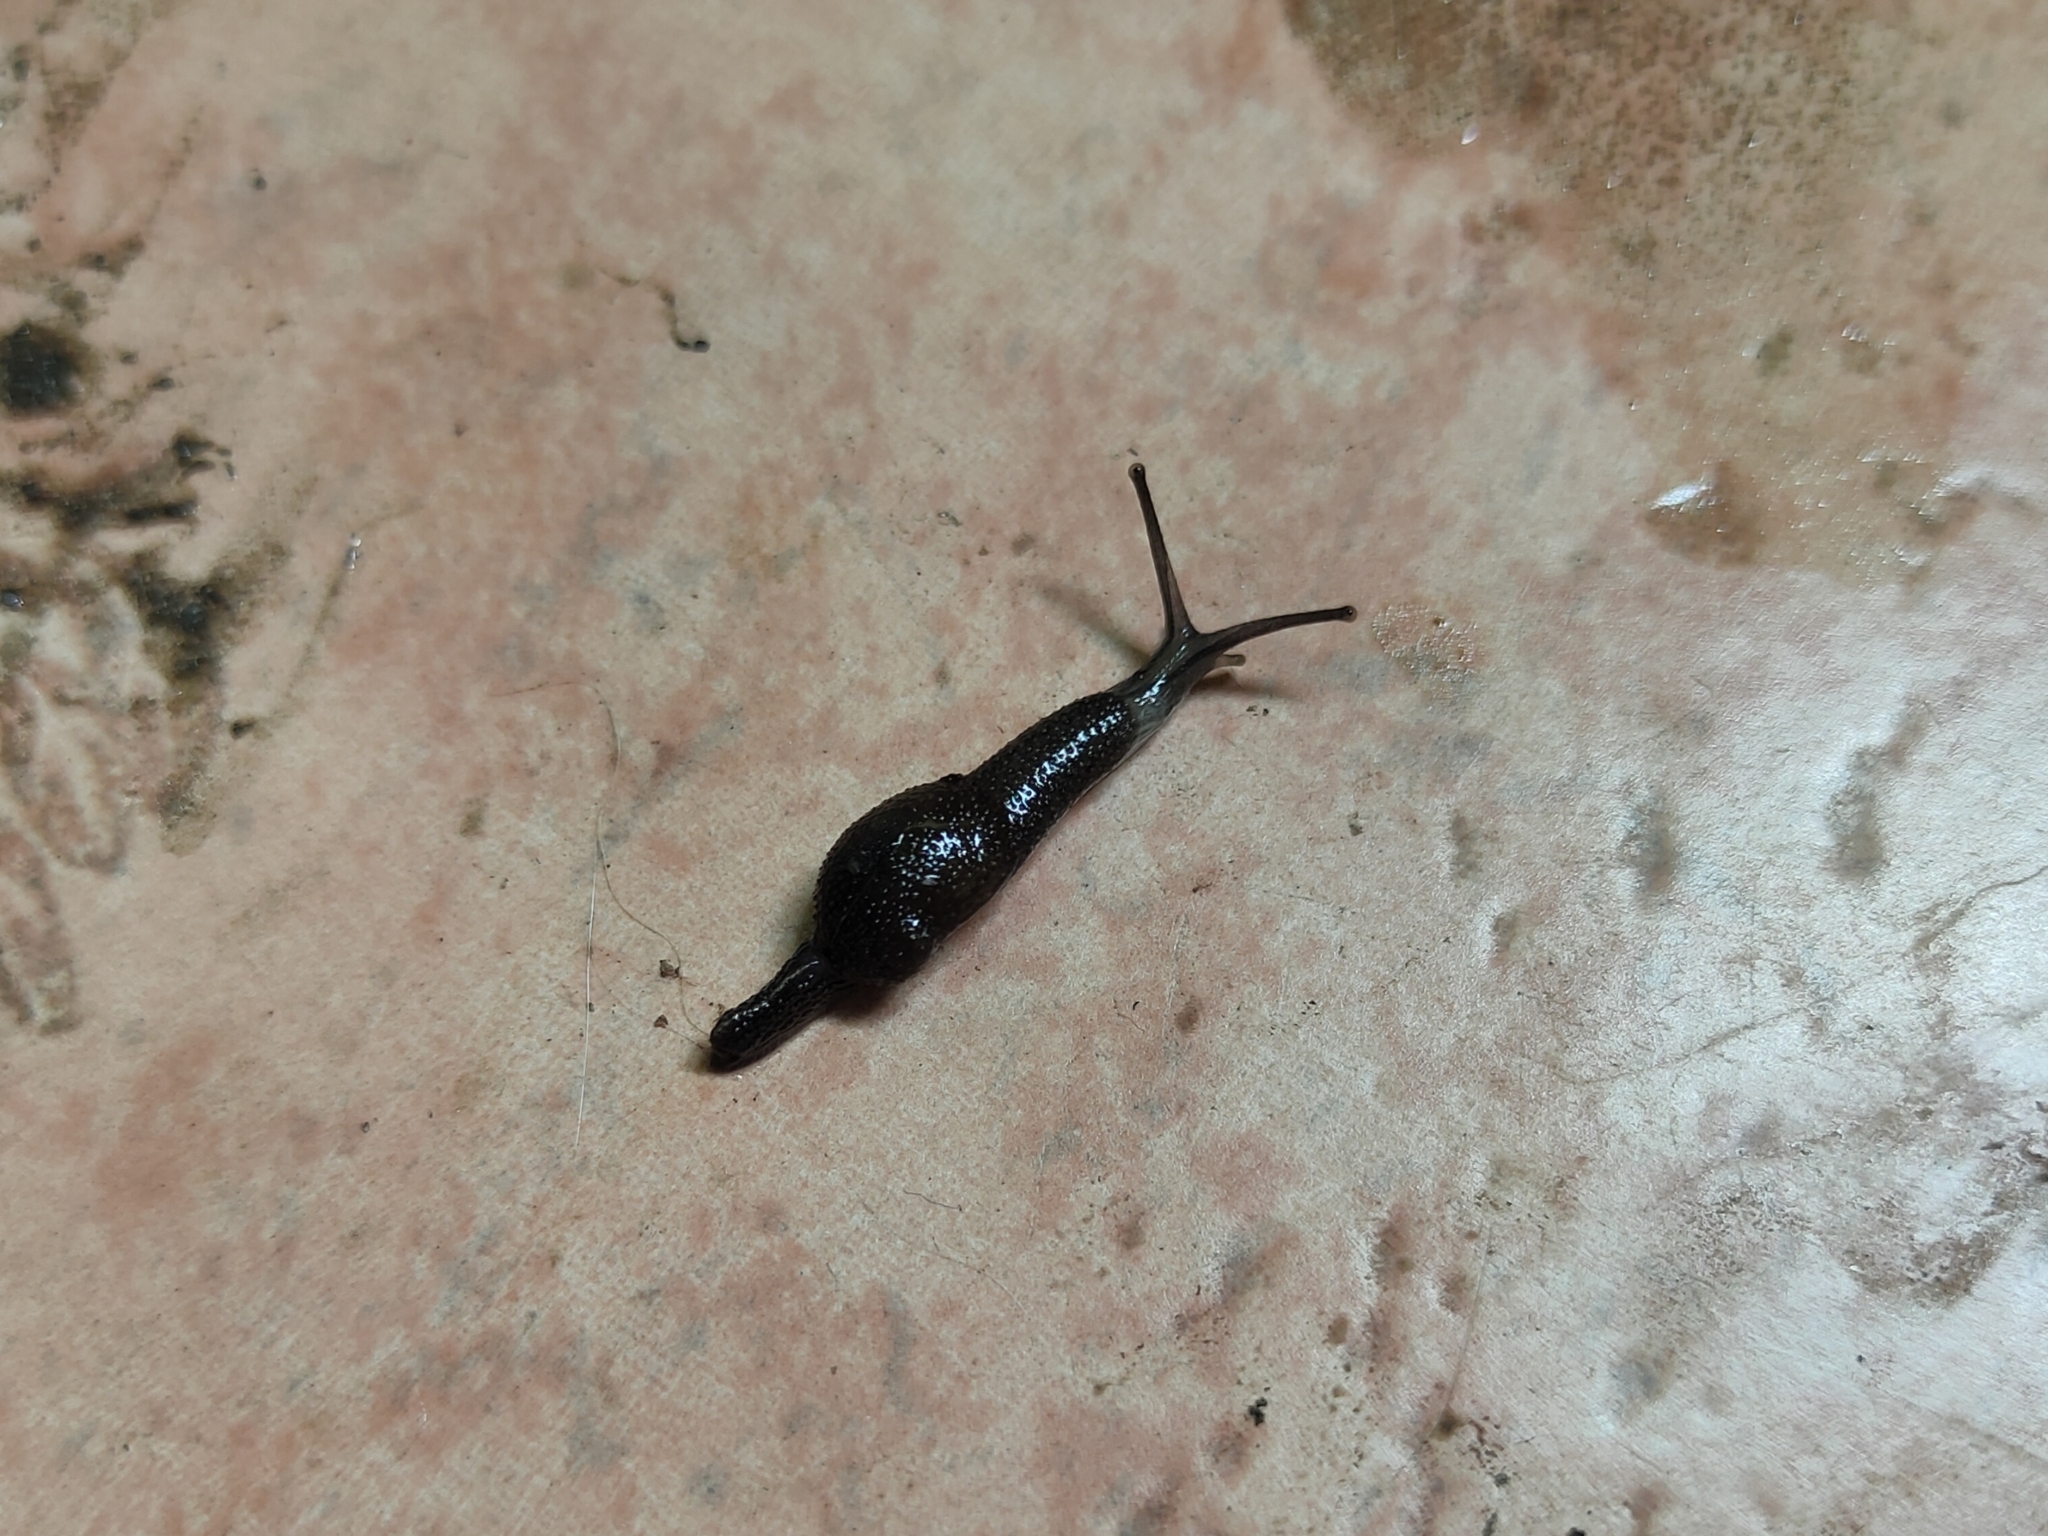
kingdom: Animalia
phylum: Mollusca
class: Gastropoda
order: Stylommatophora
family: Ariophantidae
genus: Cambodiparmarion
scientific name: Cambodiparmarion doroshenkoi
